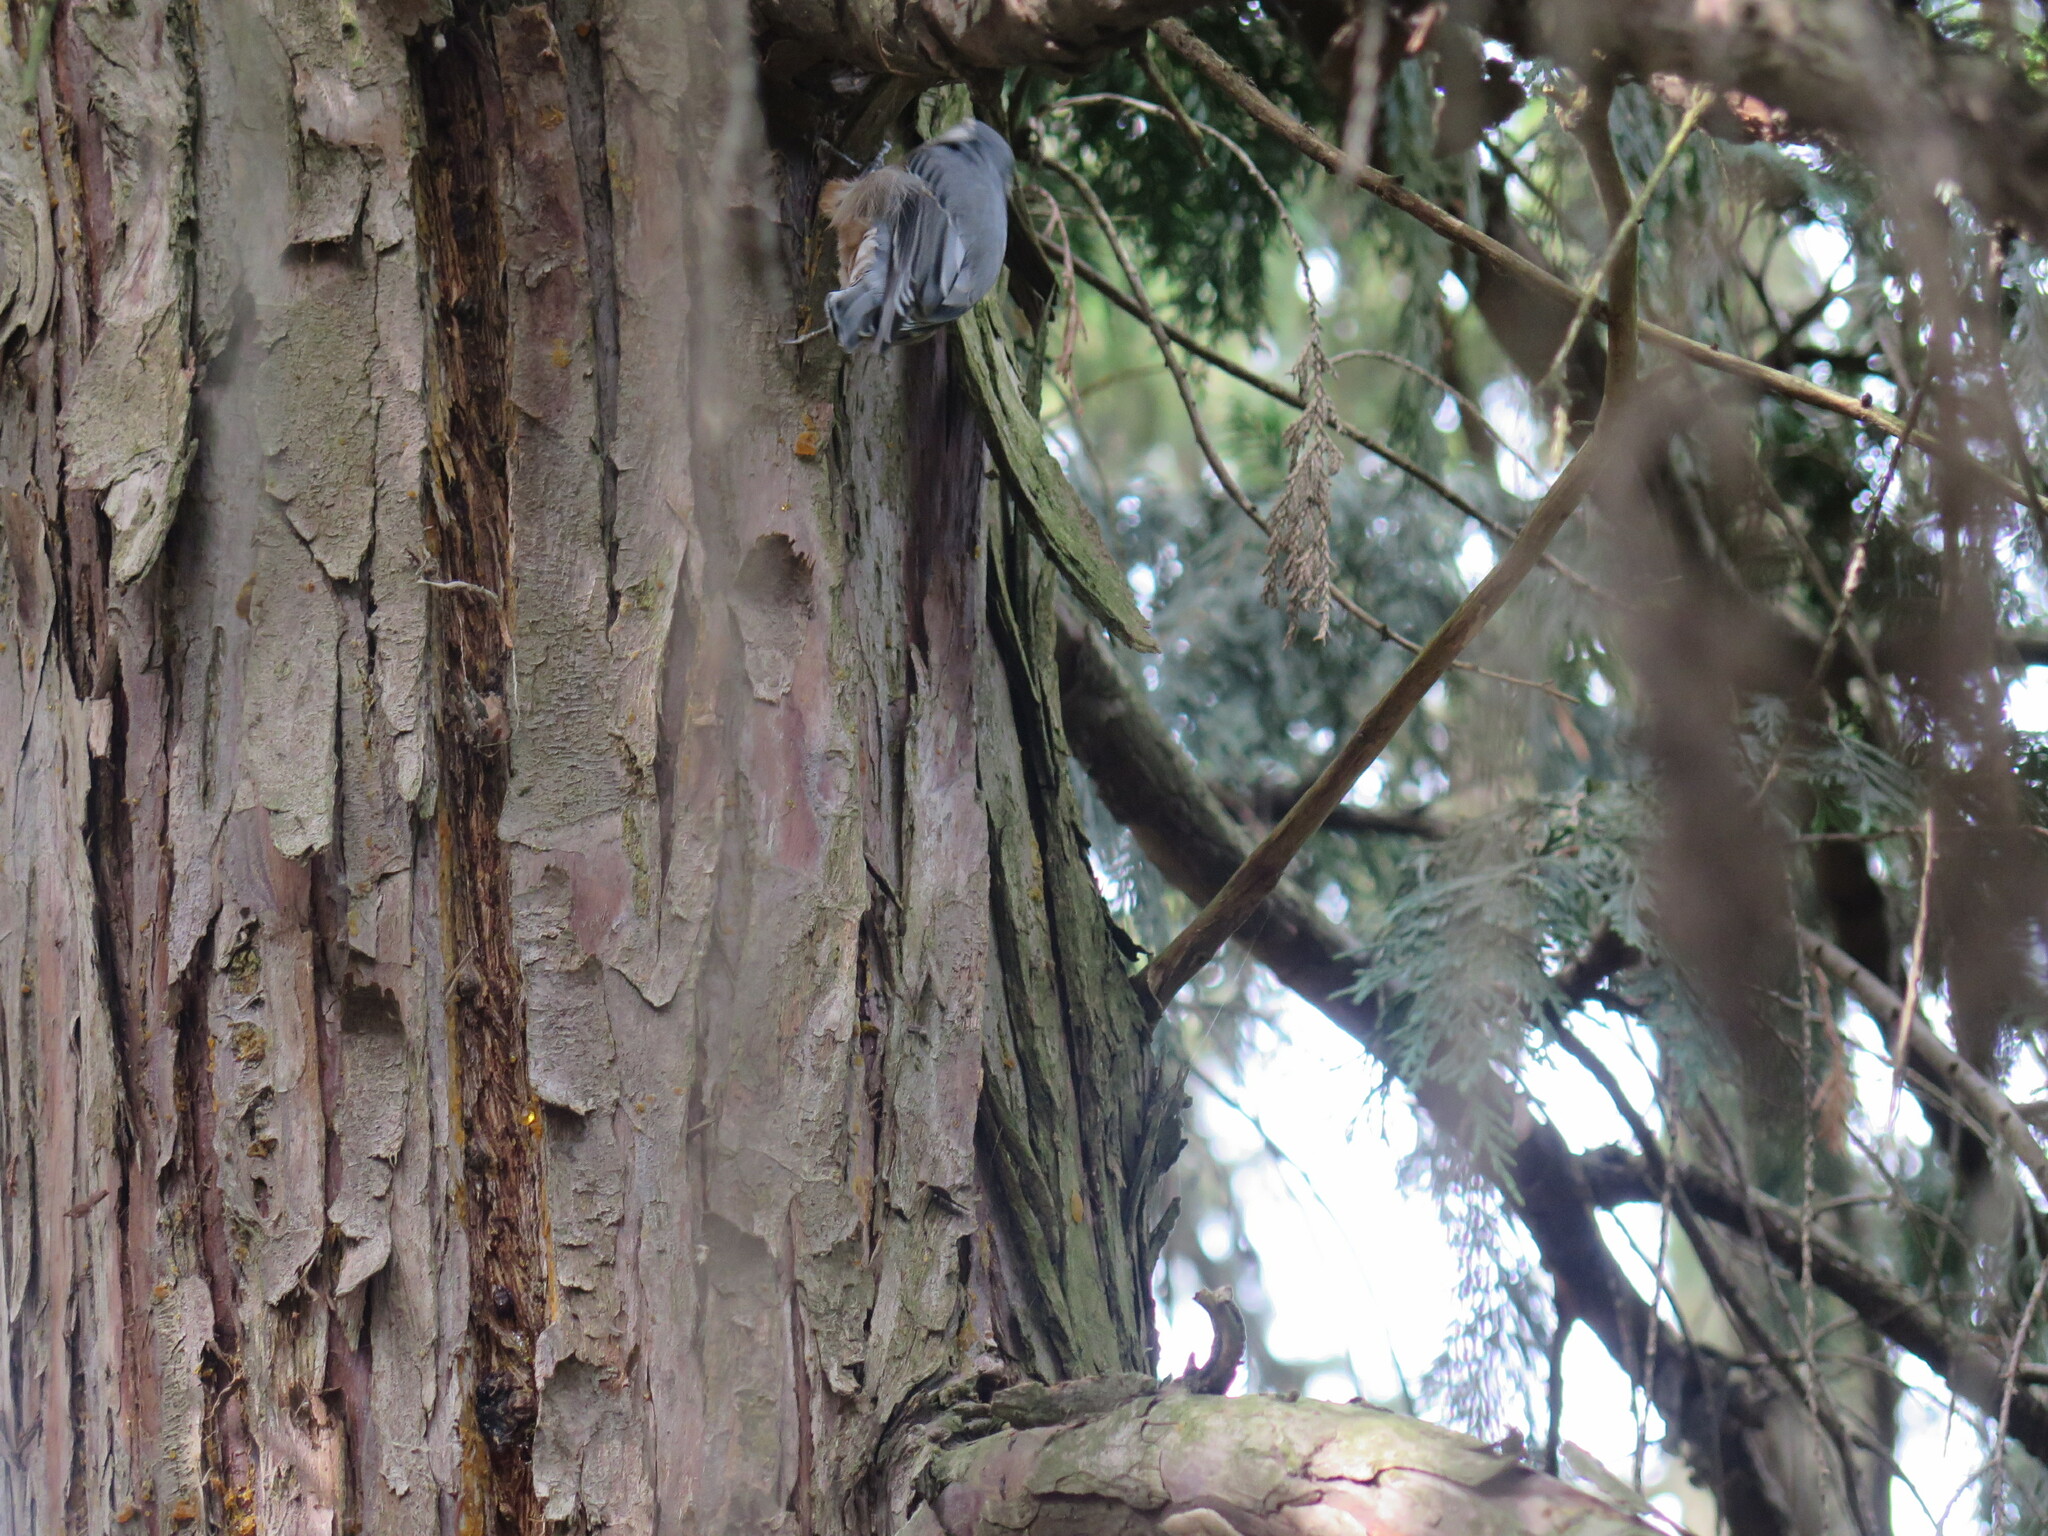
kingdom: Animalia
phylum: Chordata
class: Aves
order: Passeriformes
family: Sittidae
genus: Sitta
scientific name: Sitta carolinensis
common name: White-breasted nuthatch
